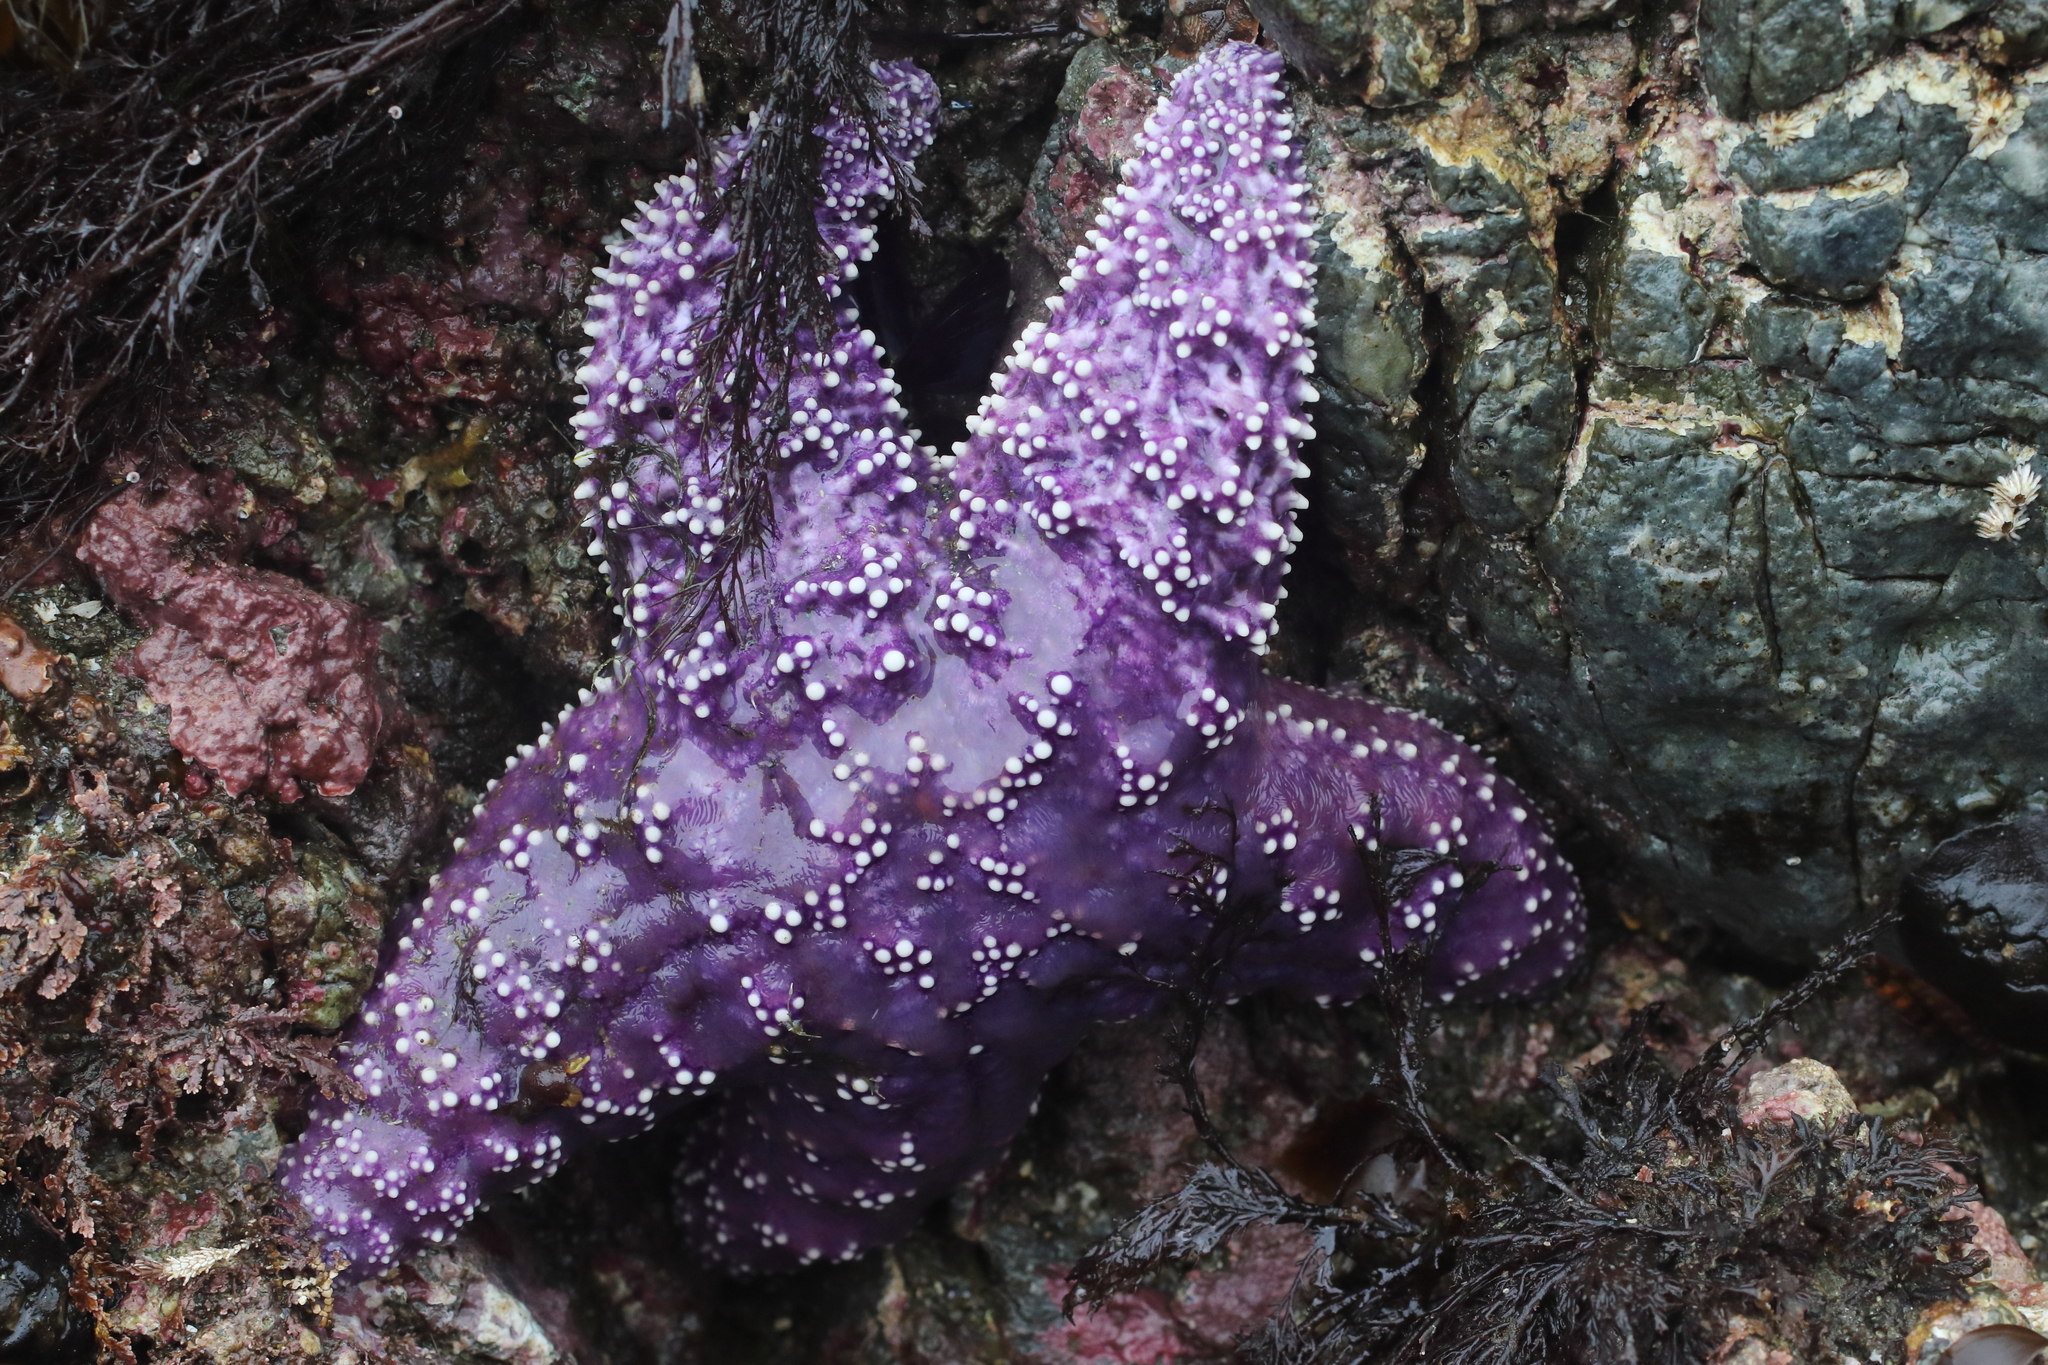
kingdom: Animalia
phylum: Echinodermata
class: Asteroidea
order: Forcipulatida
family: Asteriidae
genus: Pisaster
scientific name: Pisaster ochraceus
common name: Ochre stars
